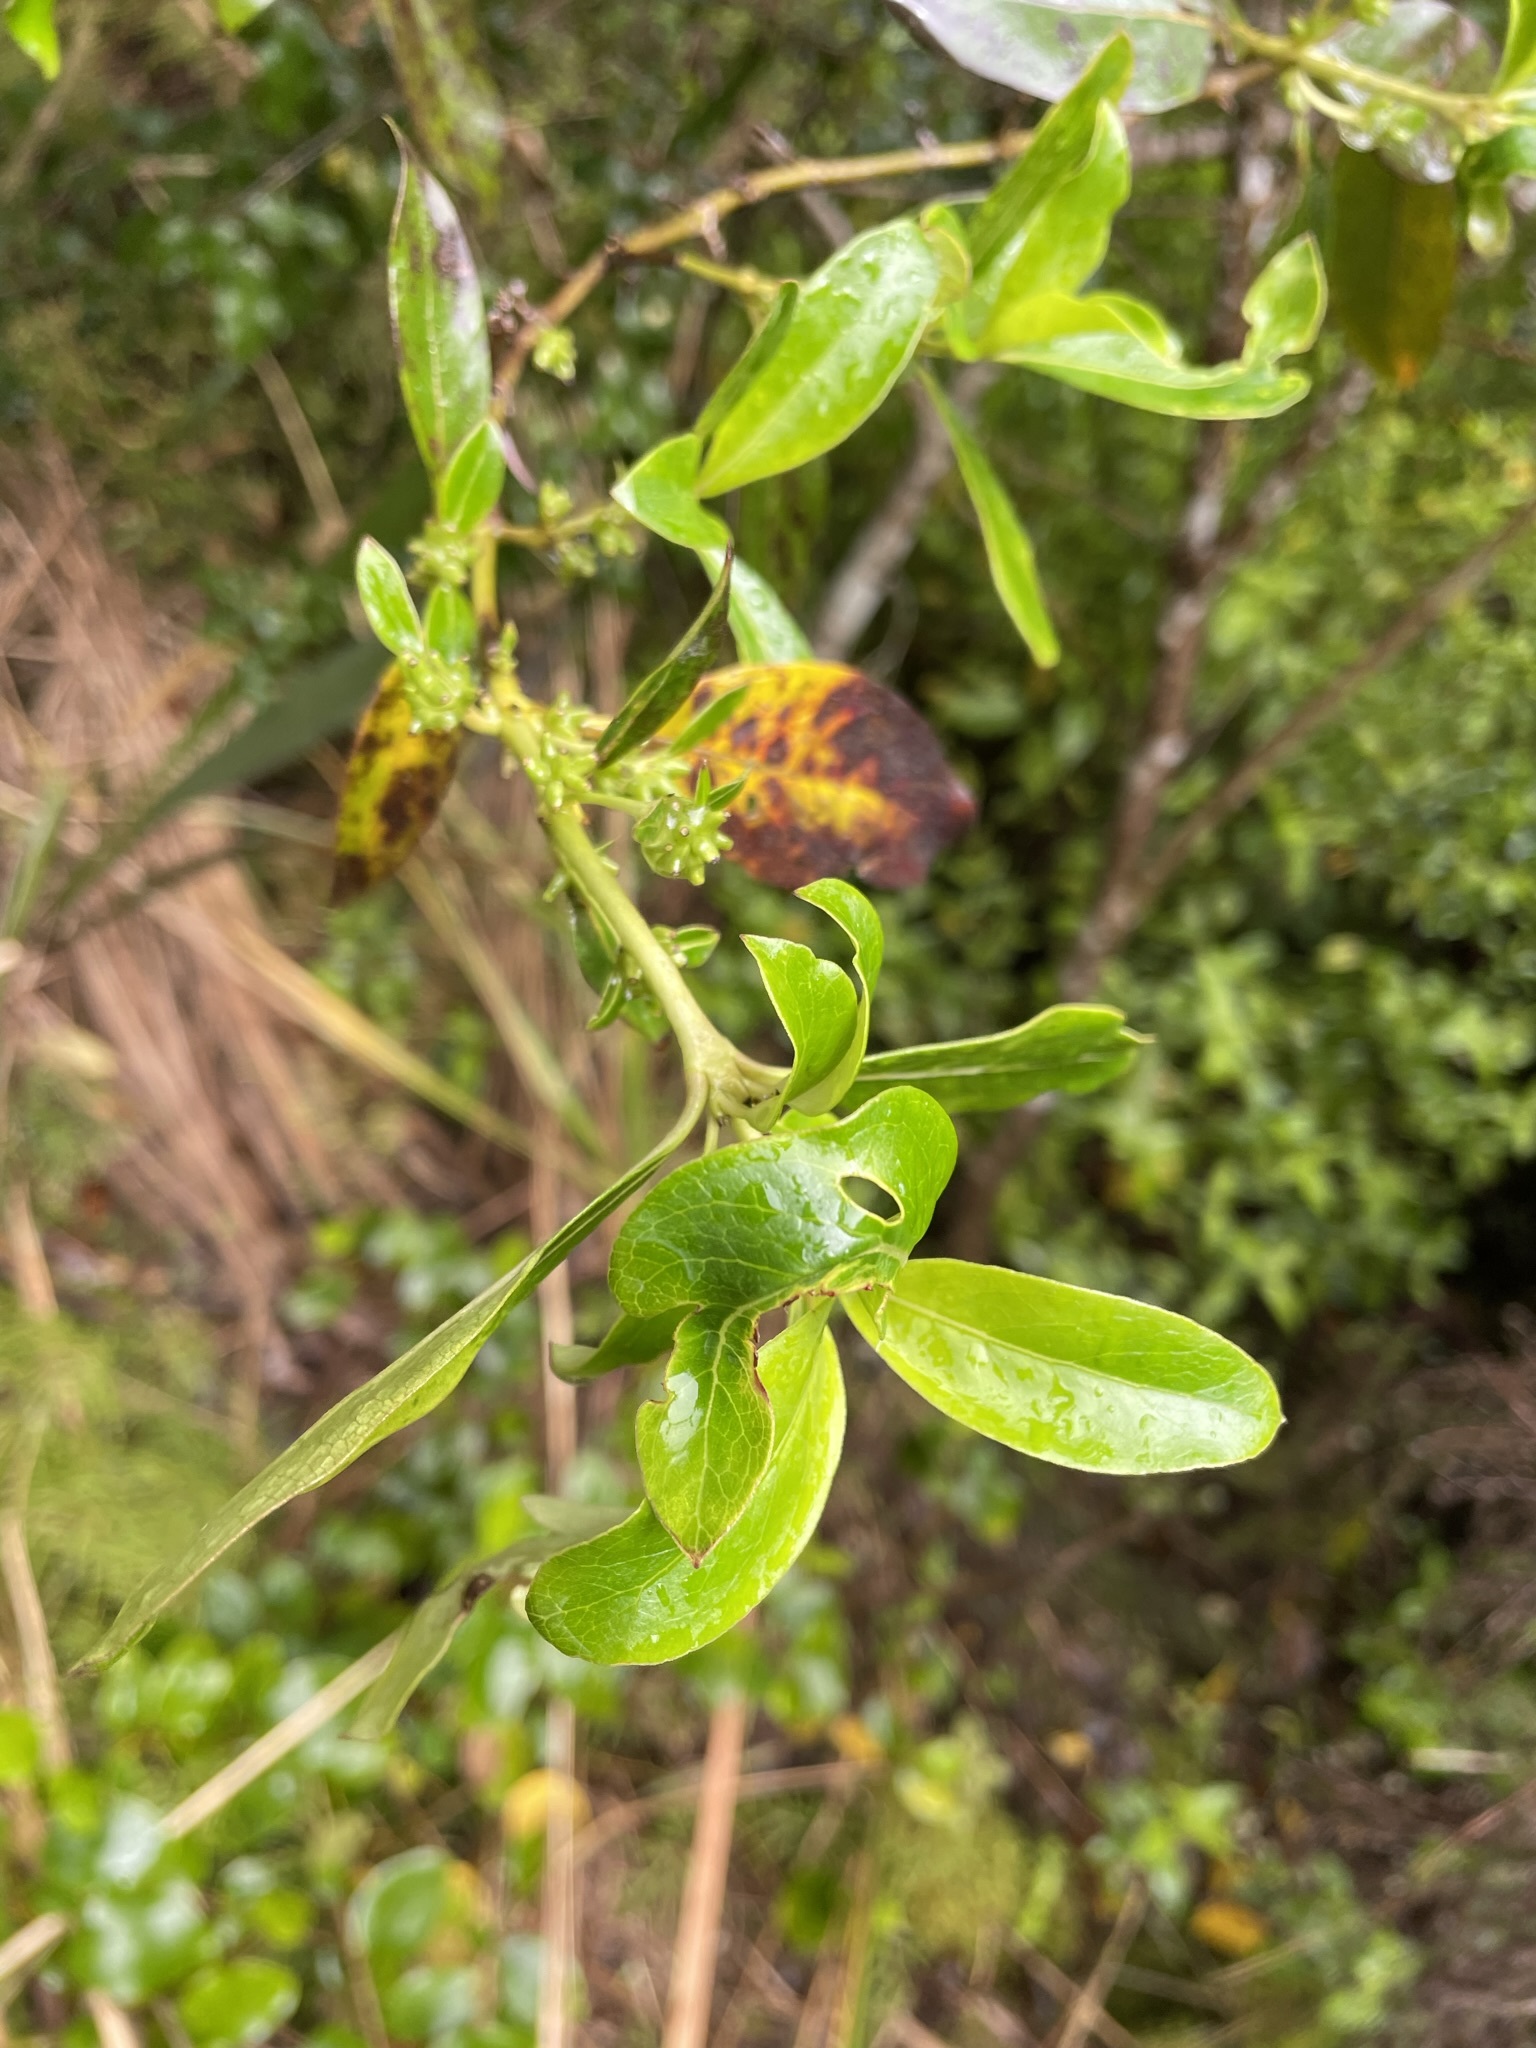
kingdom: Plantae
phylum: Tracheophyta
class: Magnoliopsida
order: Gentianales
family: Rubiaceae
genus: Coprosma
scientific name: Coprosma lucida
